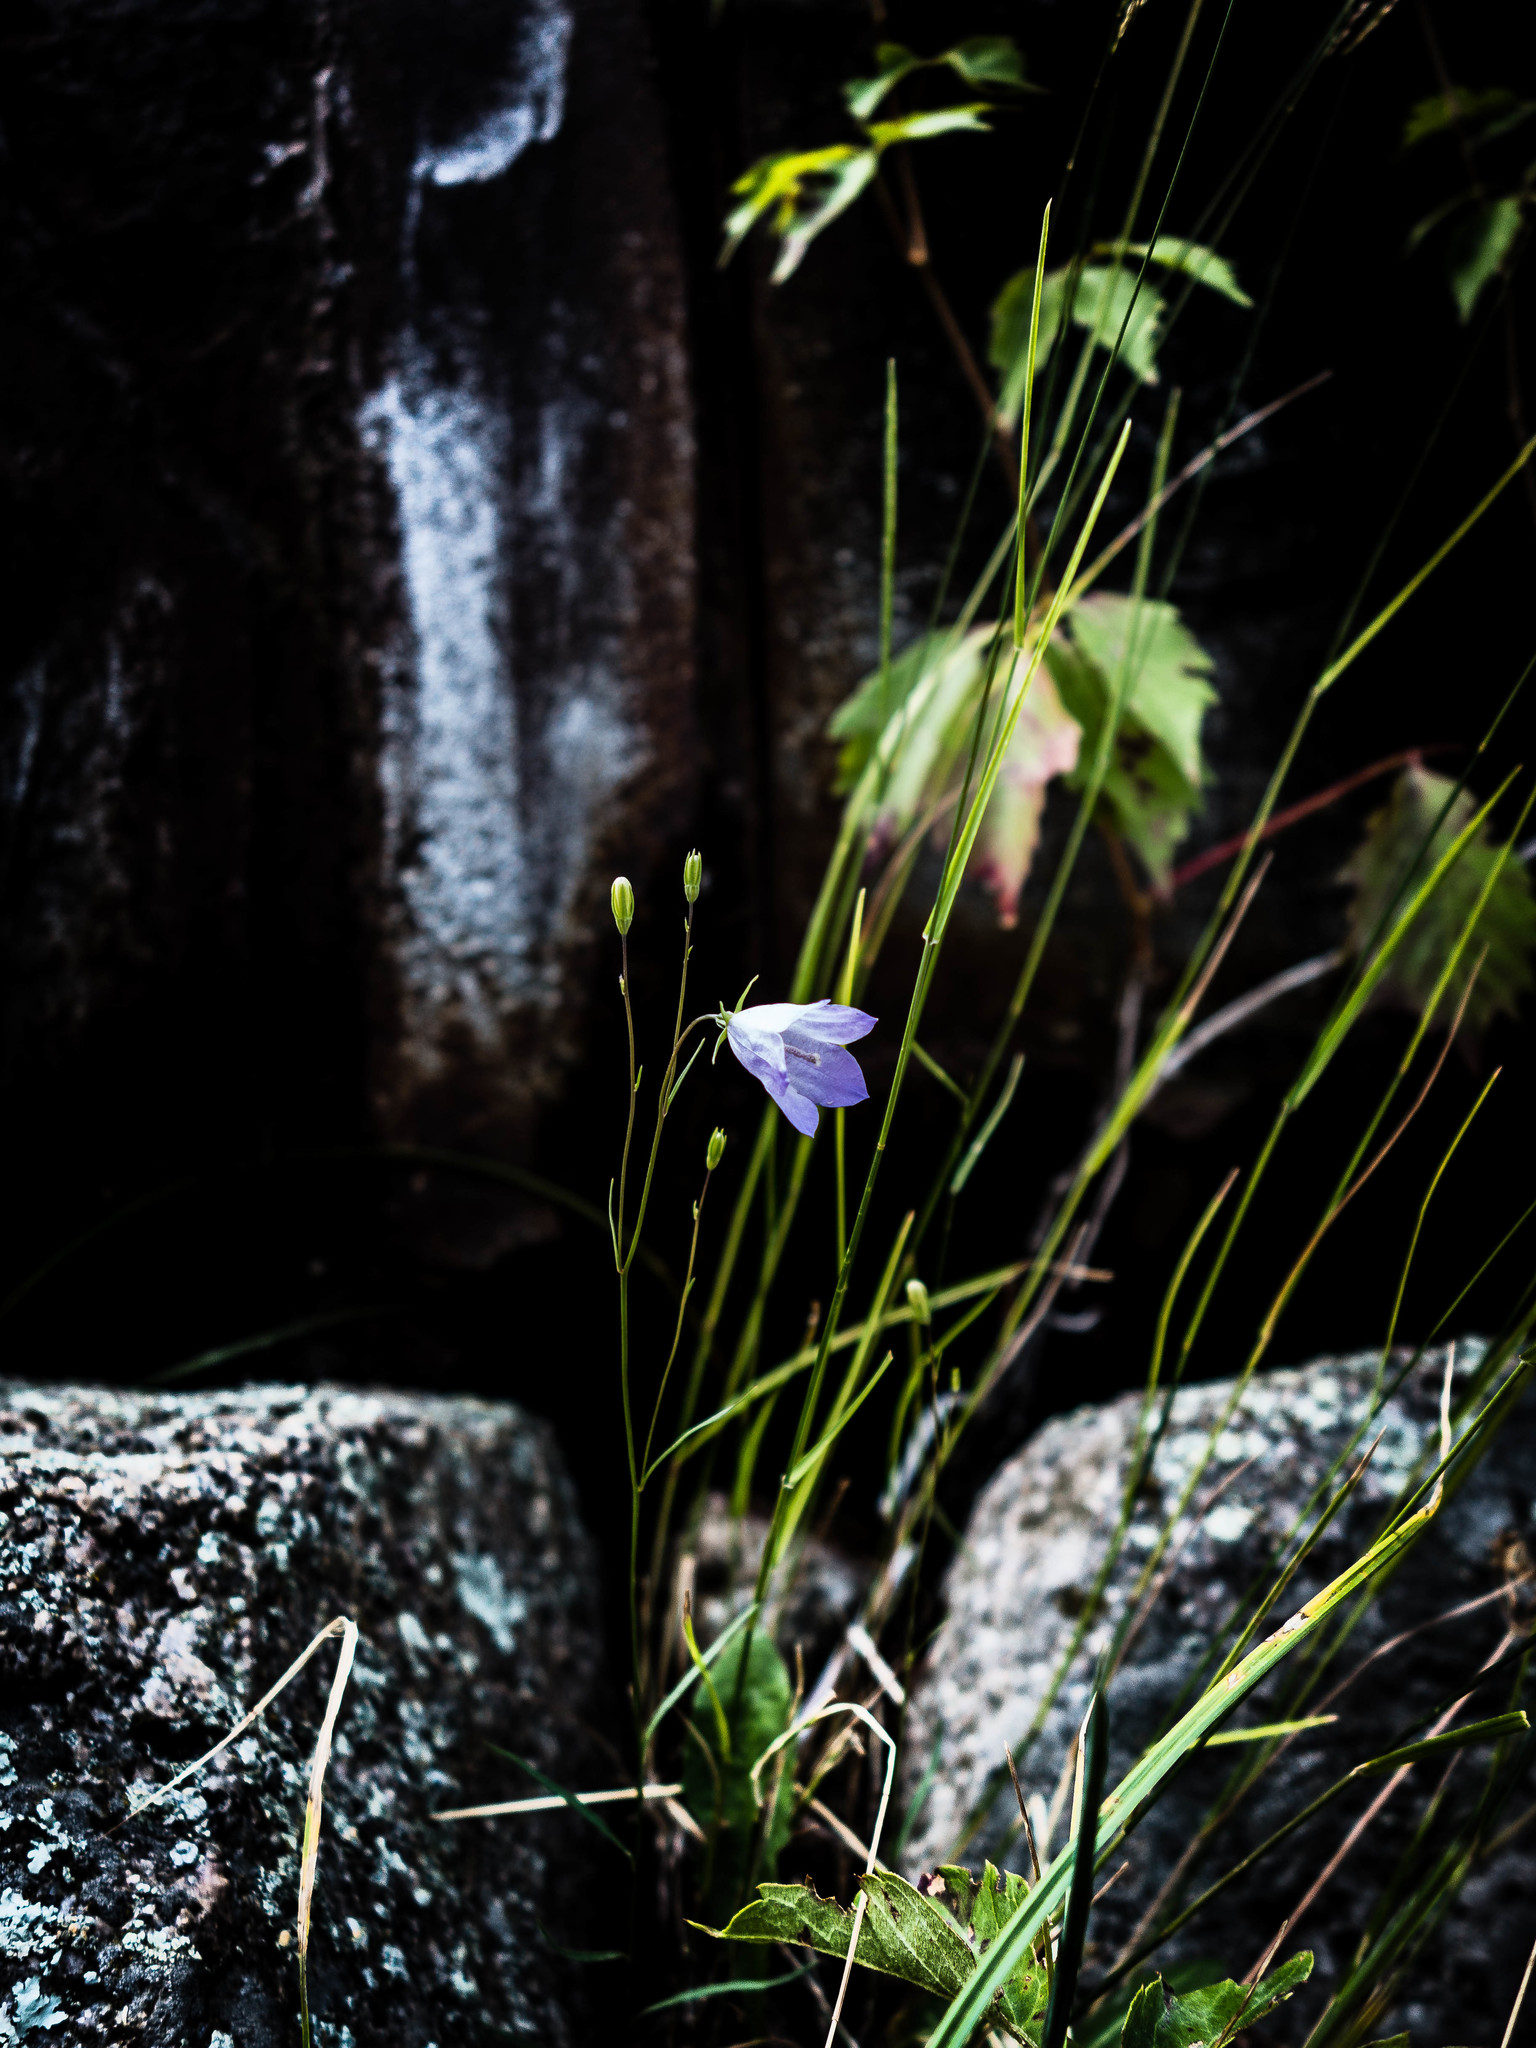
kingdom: Plantae
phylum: Tracheophyta
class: Magnoliopsida
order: Asterales
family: Campanulaceae
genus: Campanula
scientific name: Campanula petiolata
